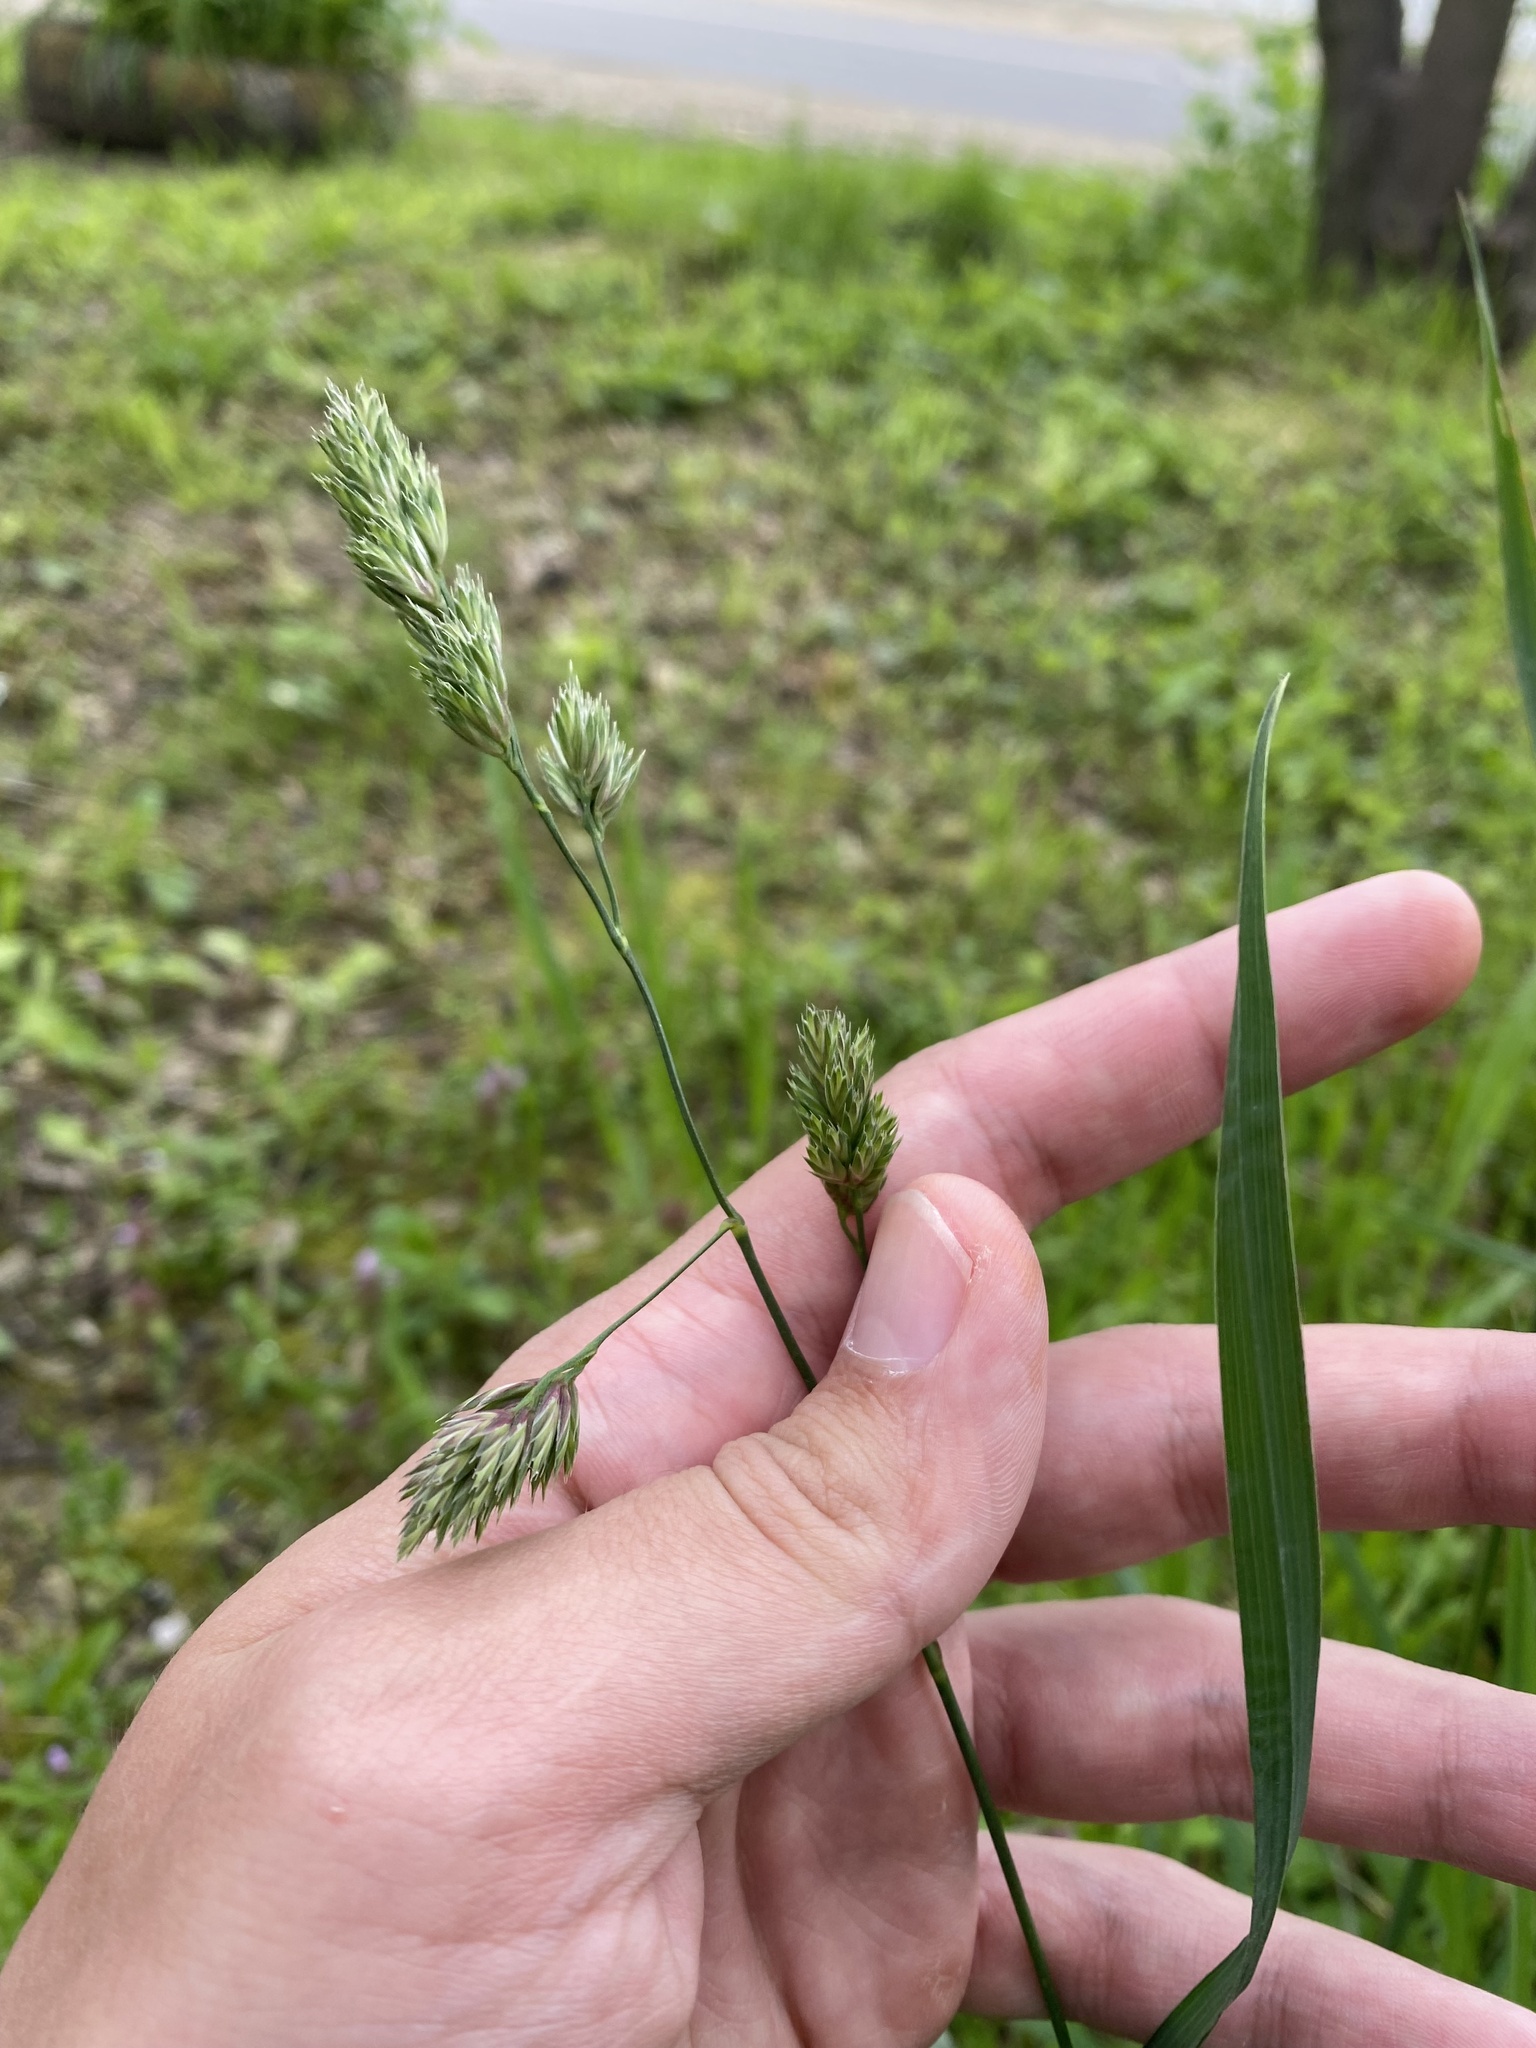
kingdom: Plantae
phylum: Tracheophyta
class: Liliopsida
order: Poales
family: Poaceae
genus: Dactylis
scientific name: Dactylis glomerata
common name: Orchardgrass
